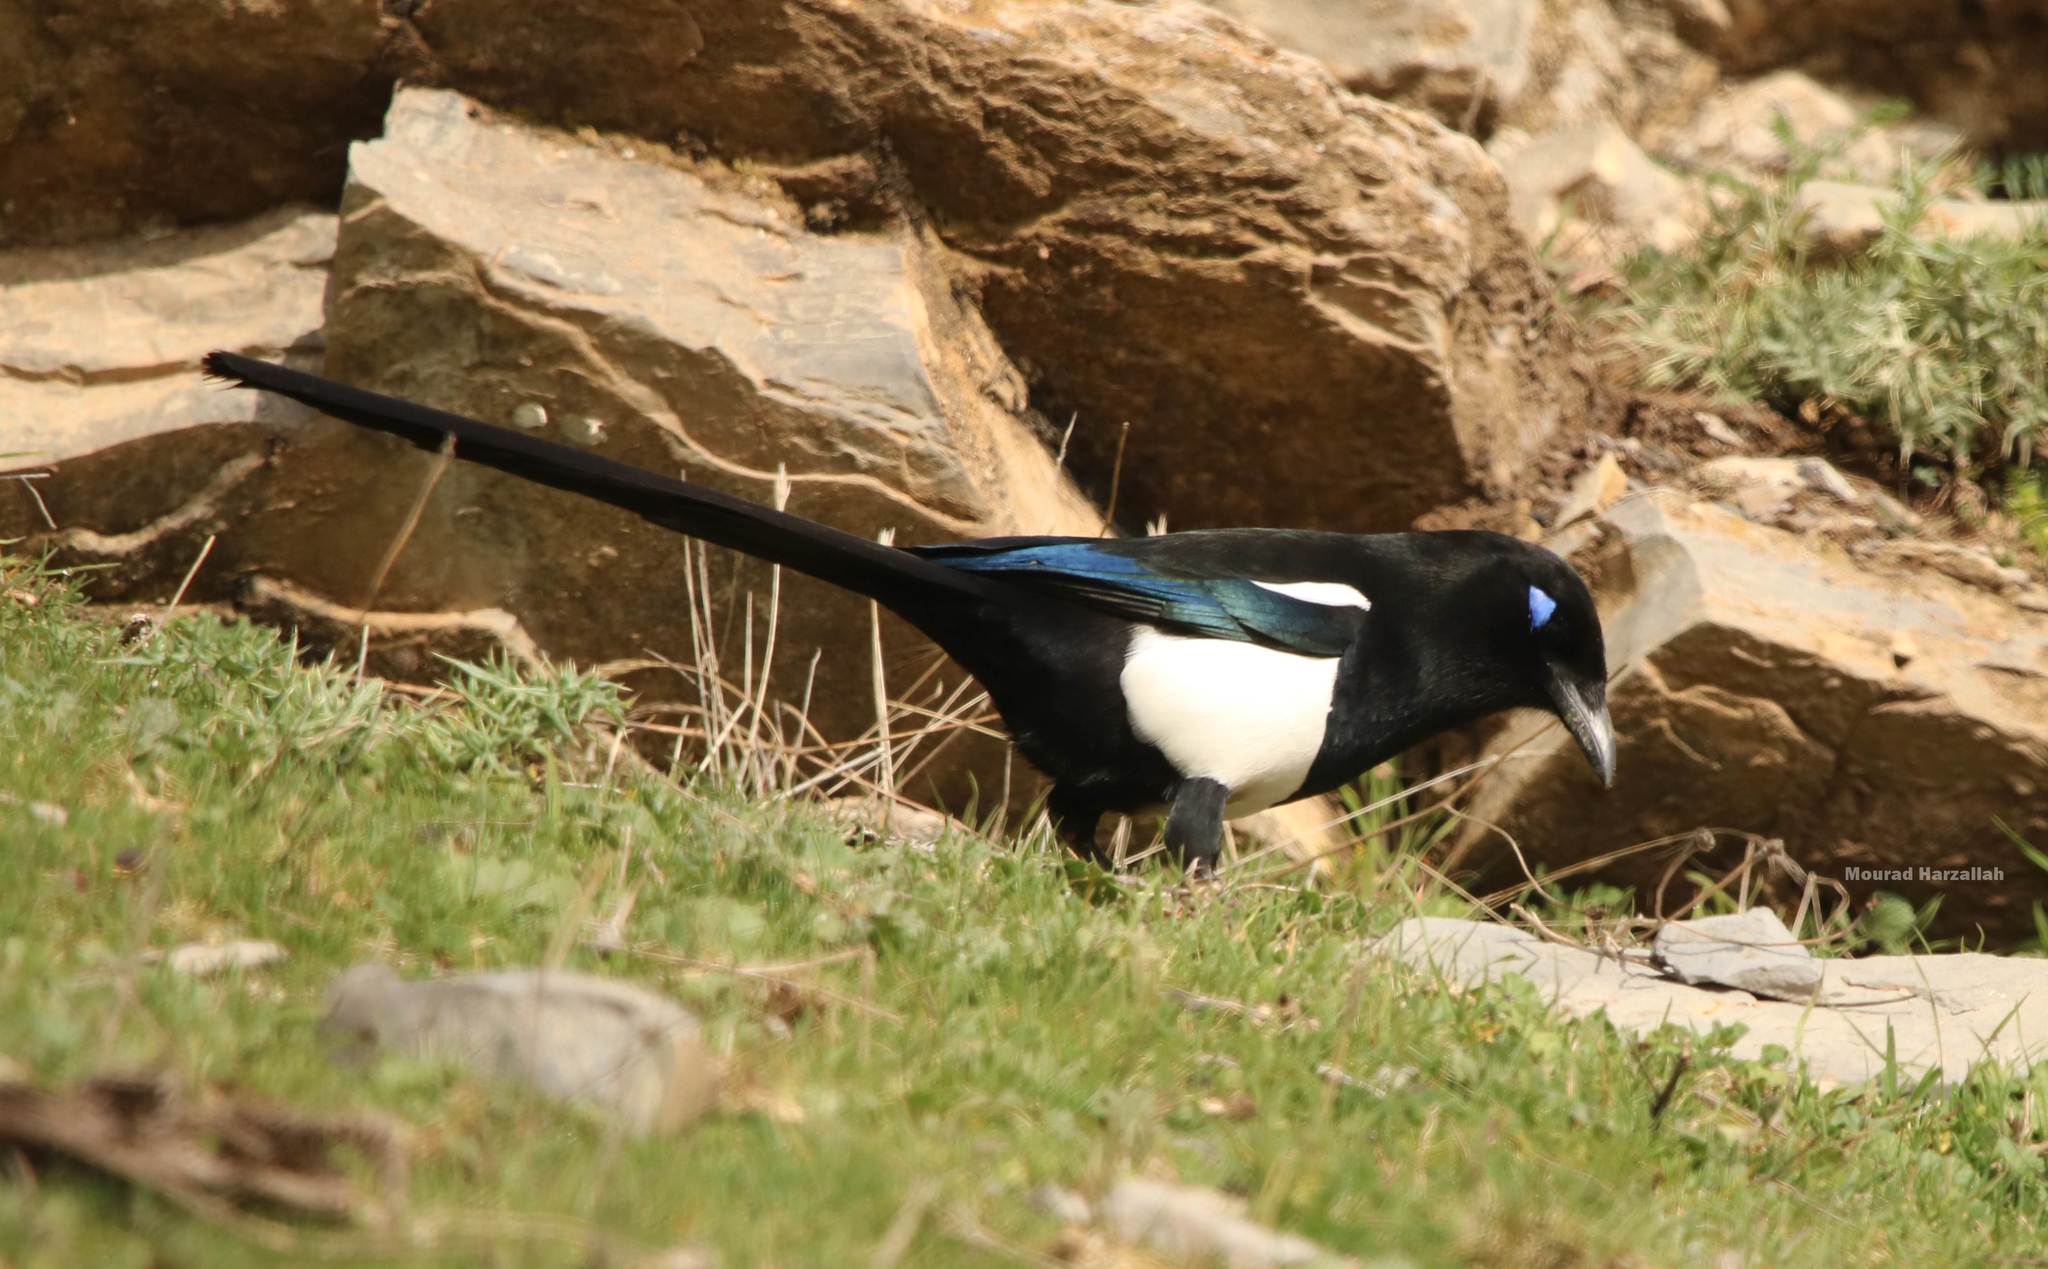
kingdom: Animalia
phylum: Chordata
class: Aves
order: Passeriformes
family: Corvidae
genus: Pica
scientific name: Pica mauritanica
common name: Maghreb magpie
